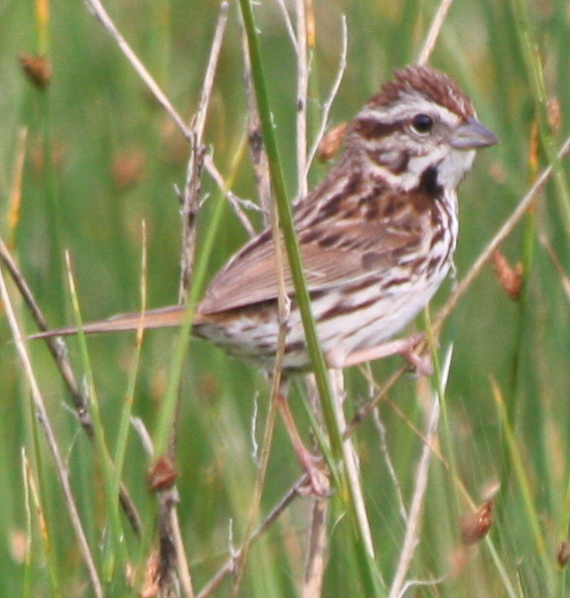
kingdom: Animalia
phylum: Chordata
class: Aves
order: Passeriformes
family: Passerellidae
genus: Melospiza
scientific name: Melospiza melodia
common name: Song sparrow
